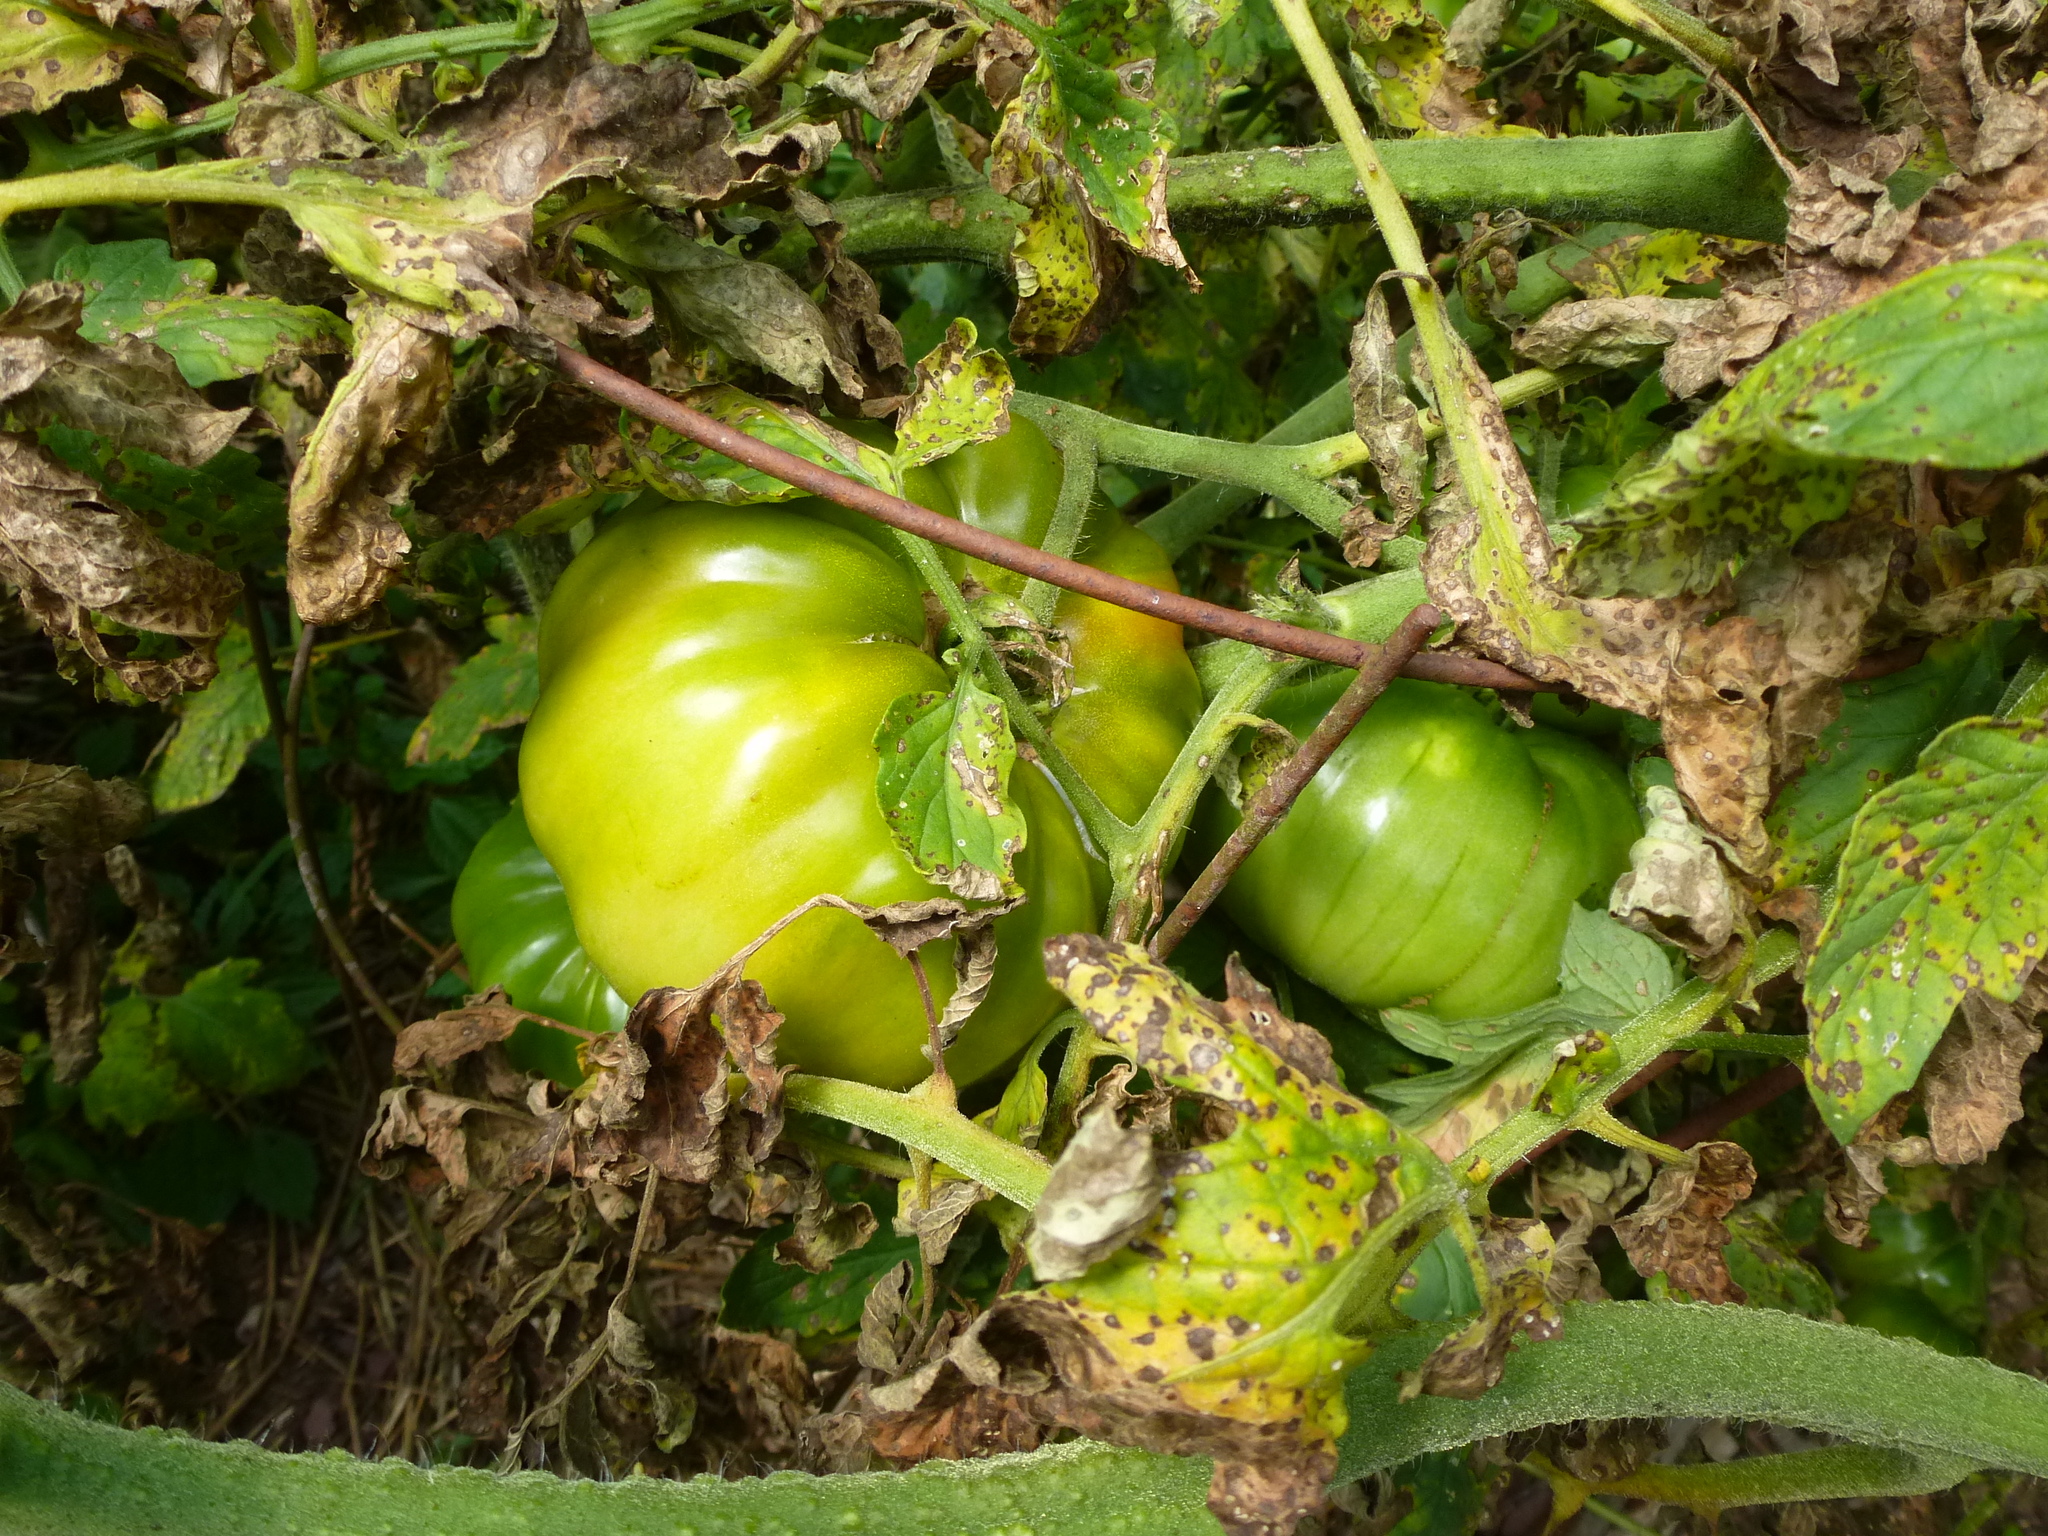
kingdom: Plantae
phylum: Tracheophyta
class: Magnoliopsida
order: Solanales
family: Solanaceae
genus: Solanum
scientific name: Solanum lycopersicum
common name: Garden tomato
